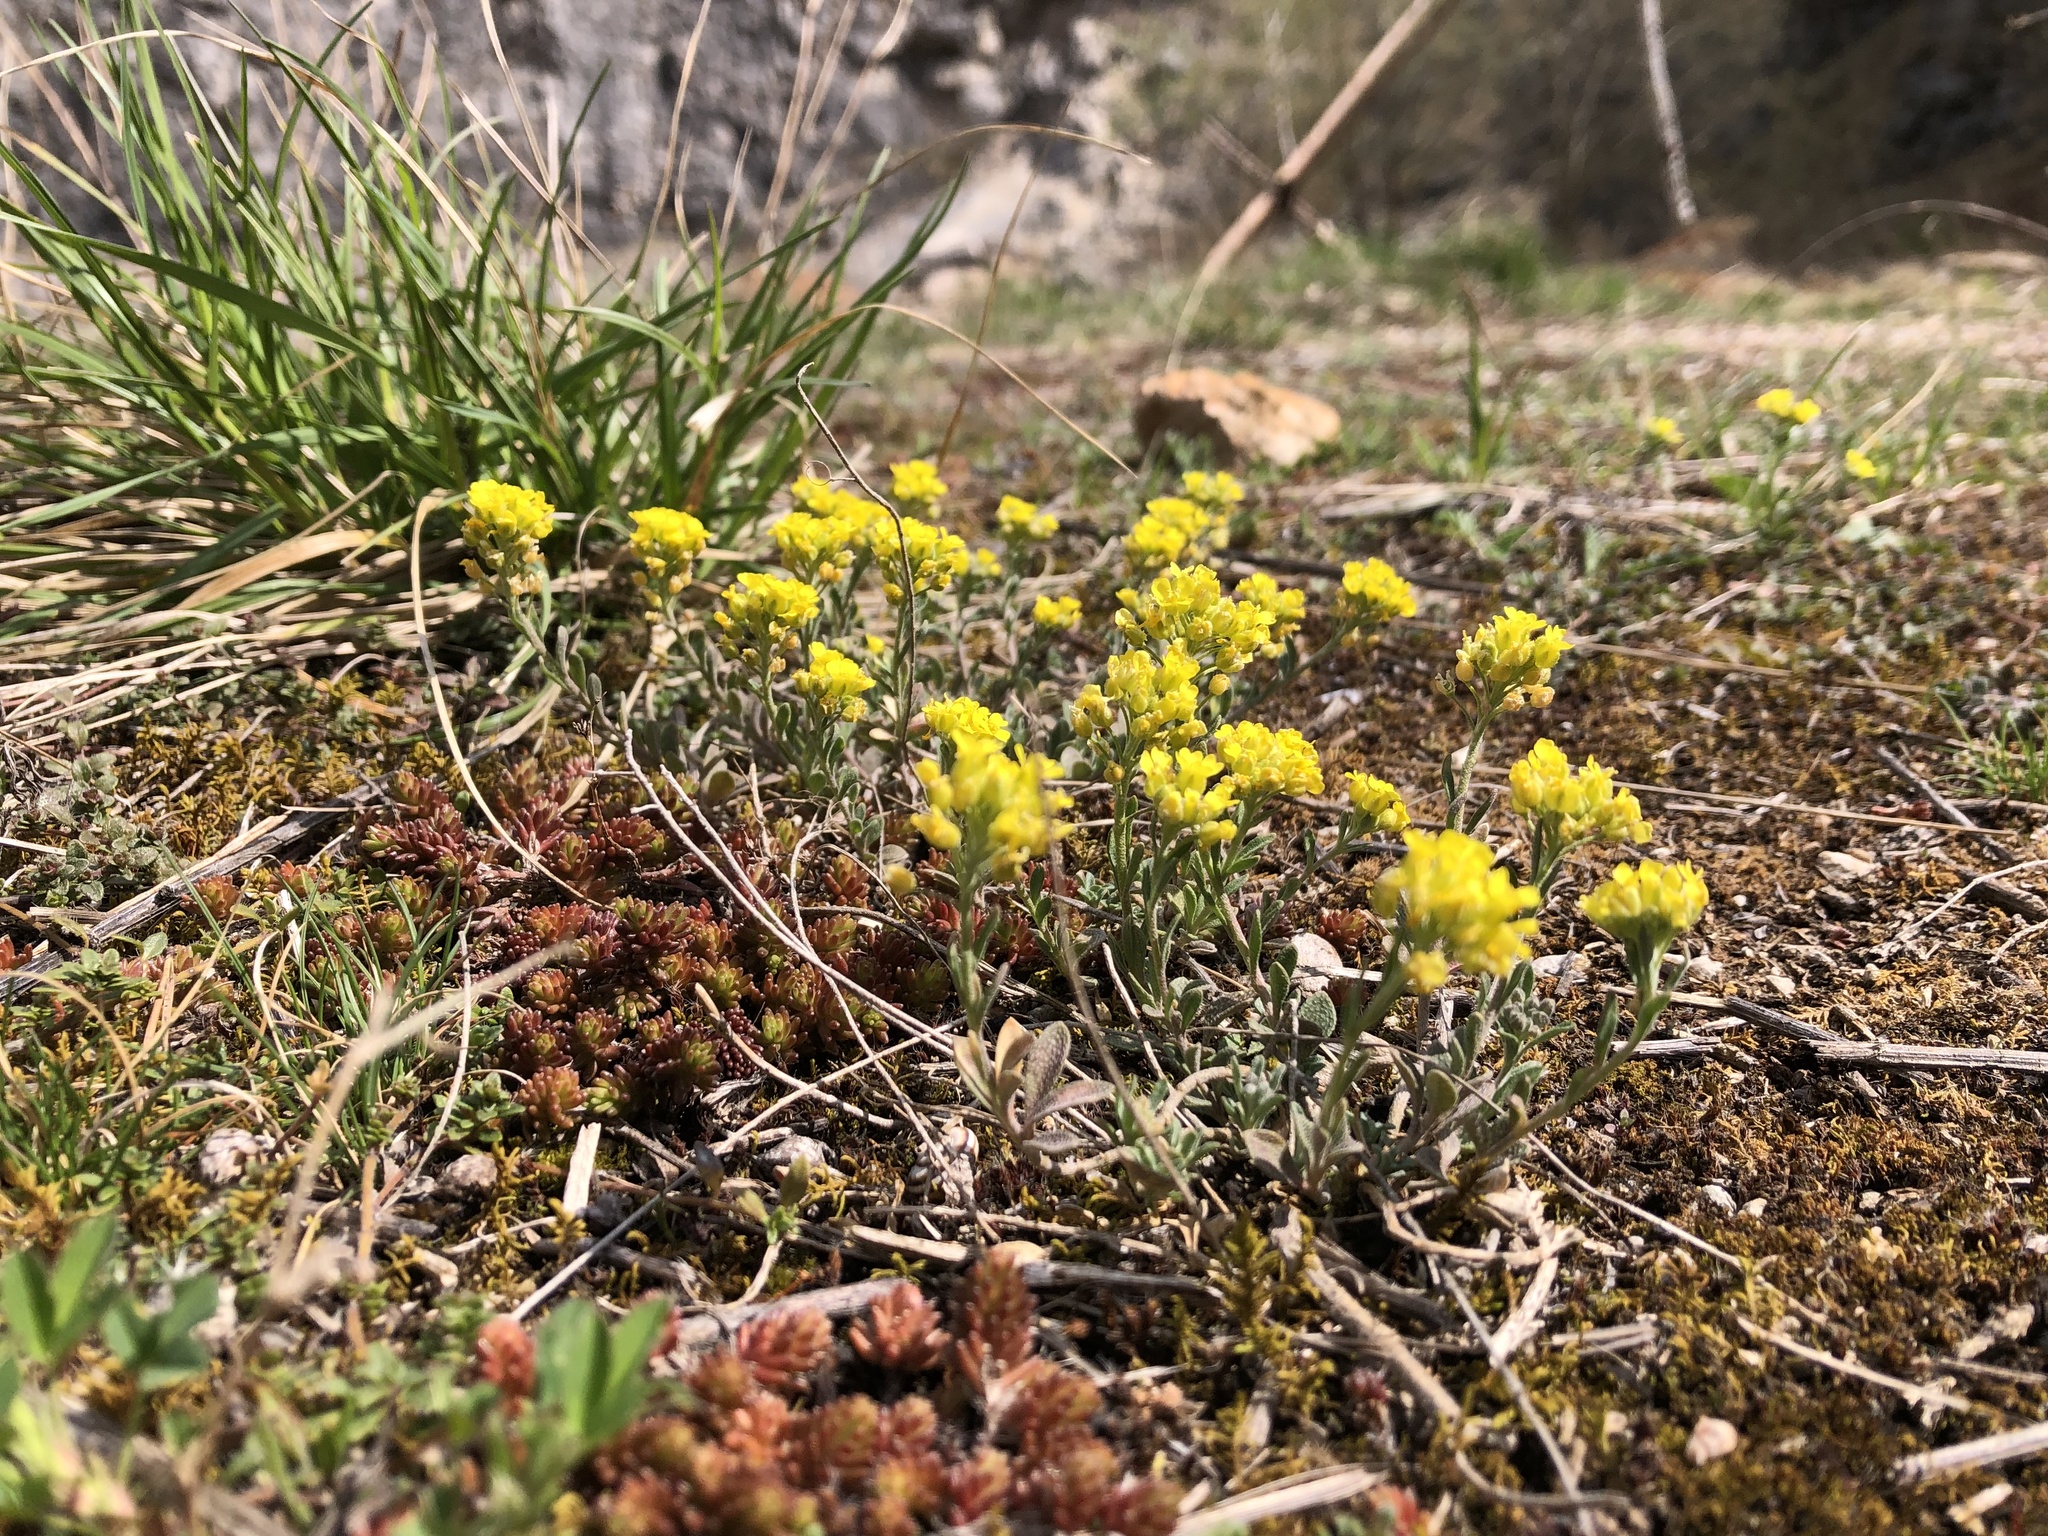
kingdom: Plantae
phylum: Tracheophyta
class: Magnoliopsida
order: Brassicales
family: Brassicaceae
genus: Alyssum
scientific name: Alyssum gmelinii
